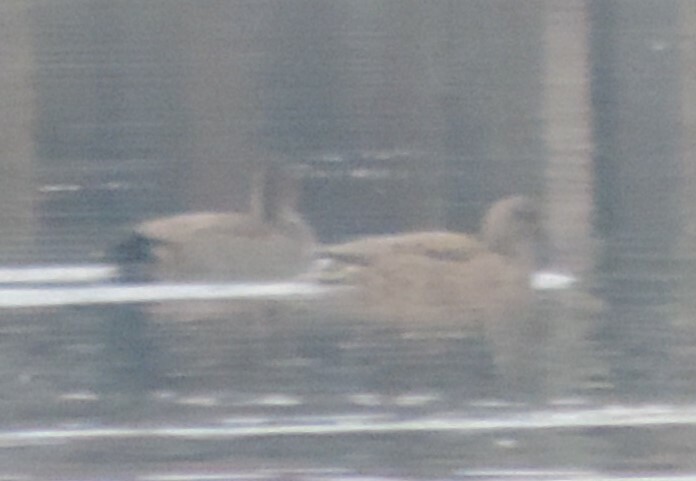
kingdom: Animalia
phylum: Chordata
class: Aves
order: Anseriformes
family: Anatidae
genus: Mareca
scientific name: Mareca strepera
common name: Gadwall
